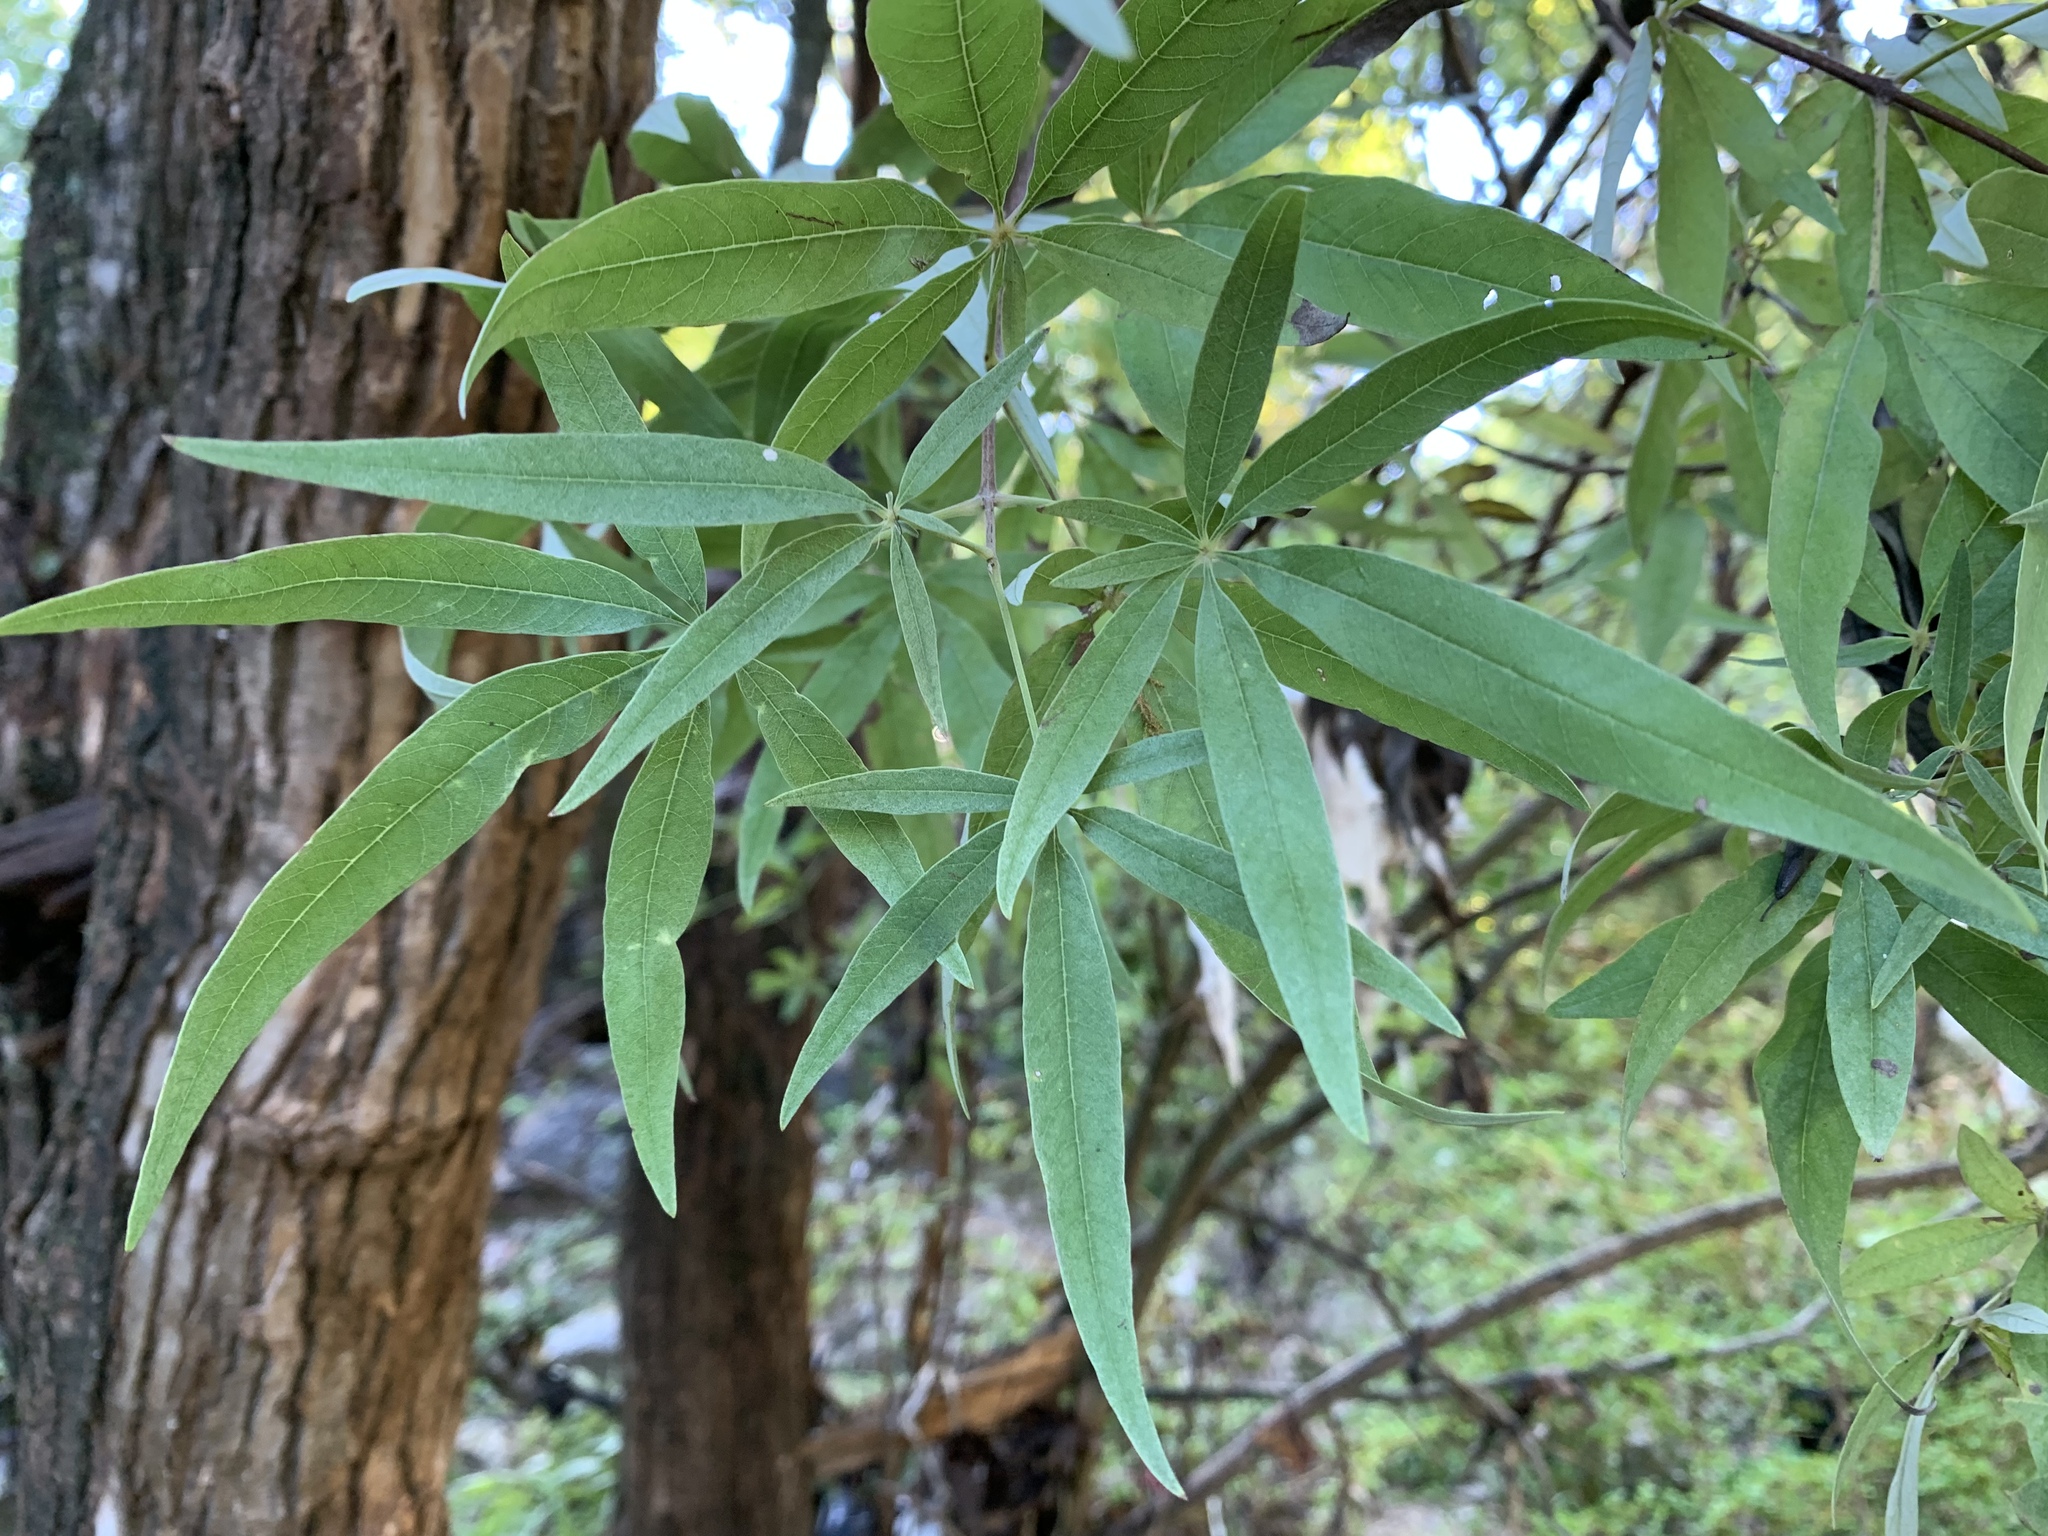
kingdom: Plantae
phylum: Tracheophyta
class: Magnoliopsida
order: Lamiales
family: Lamiaceae
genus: Vitex
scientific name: Vitex agnus-castus
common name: Chasteberry
